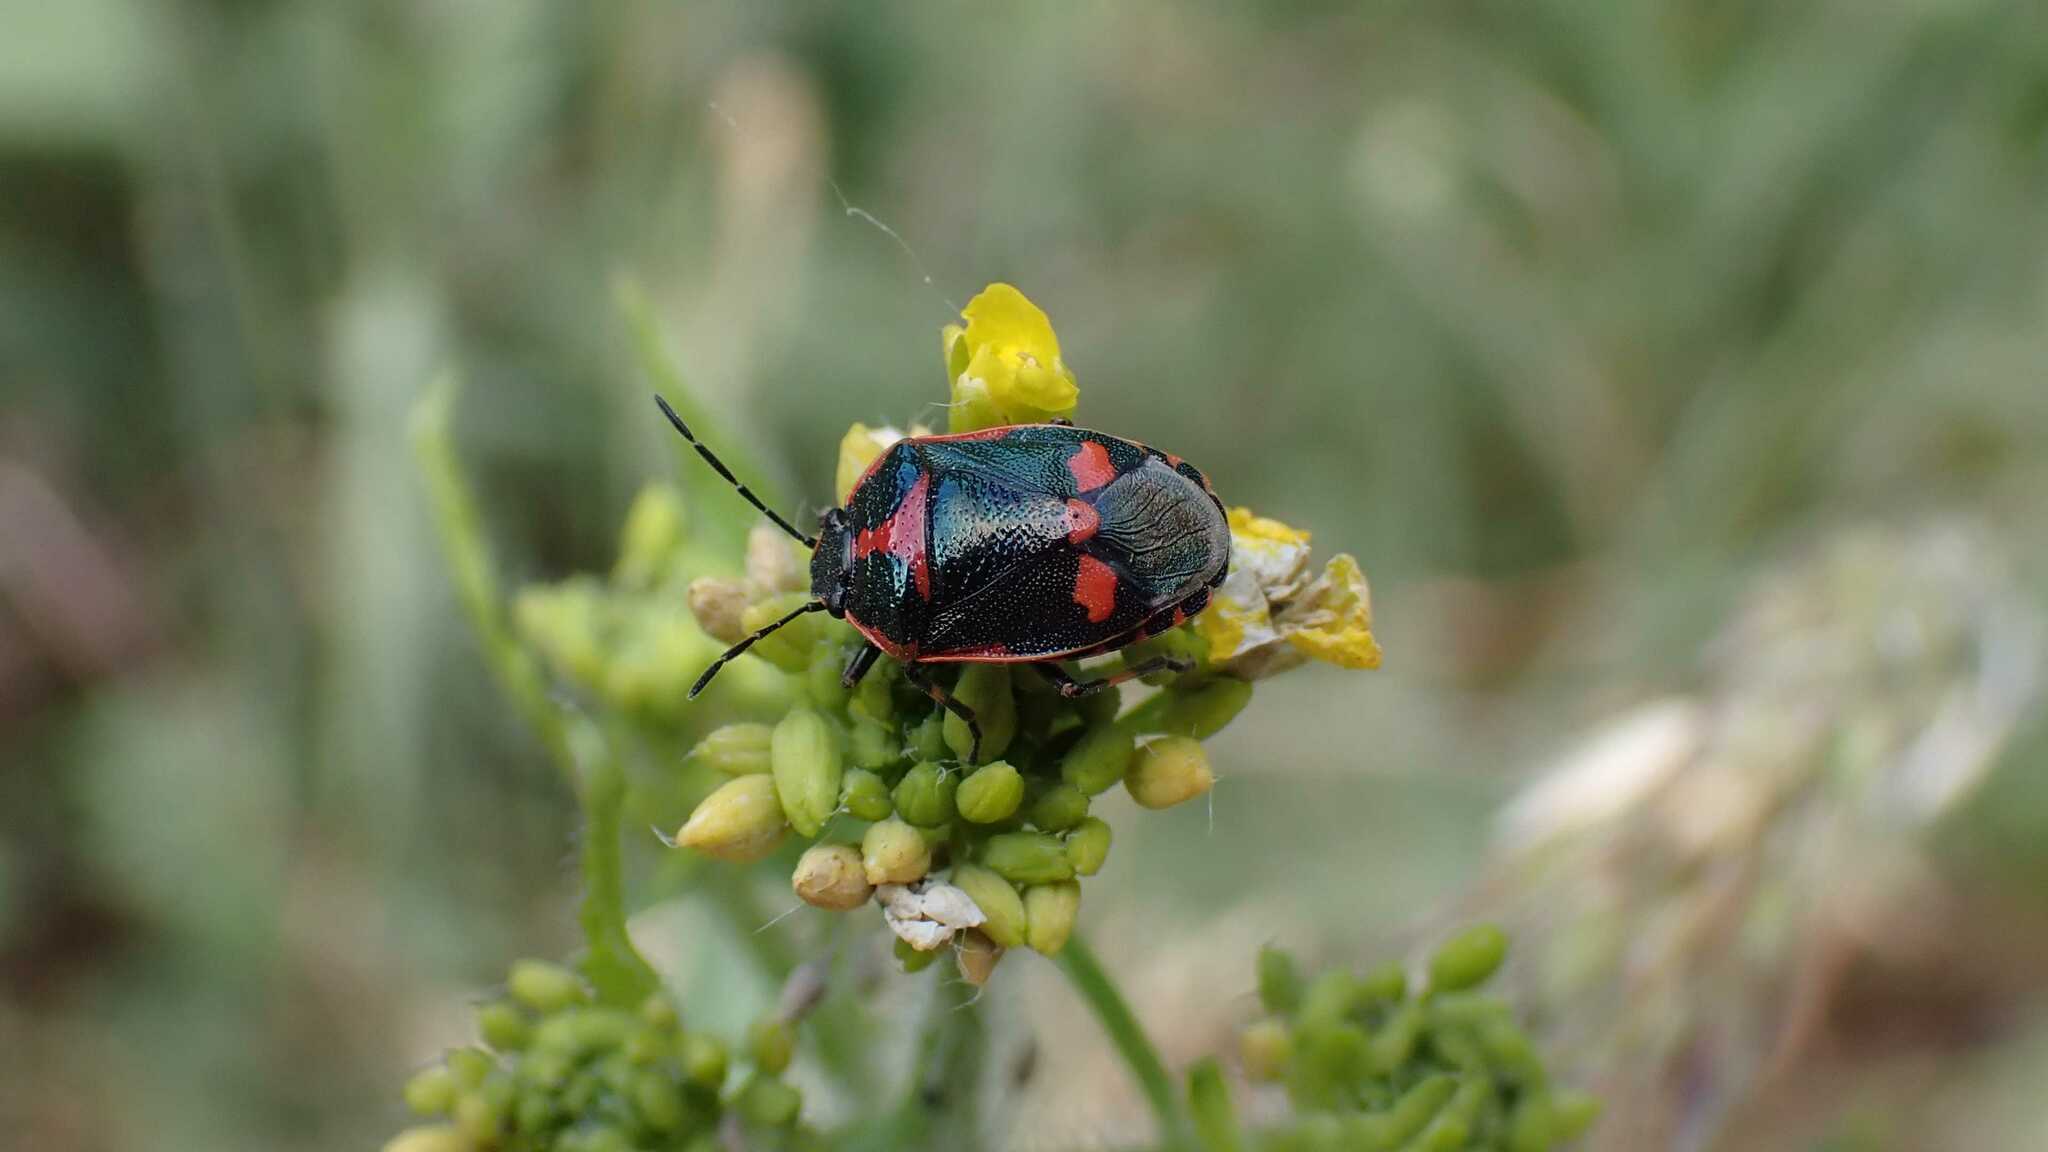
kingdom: Animalia
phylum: Arthropoda
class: Insecta
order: Hemiptera
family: Pentatomidae
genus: Eurydema
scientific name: Eurydema oleracea
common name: Cabbage bug
